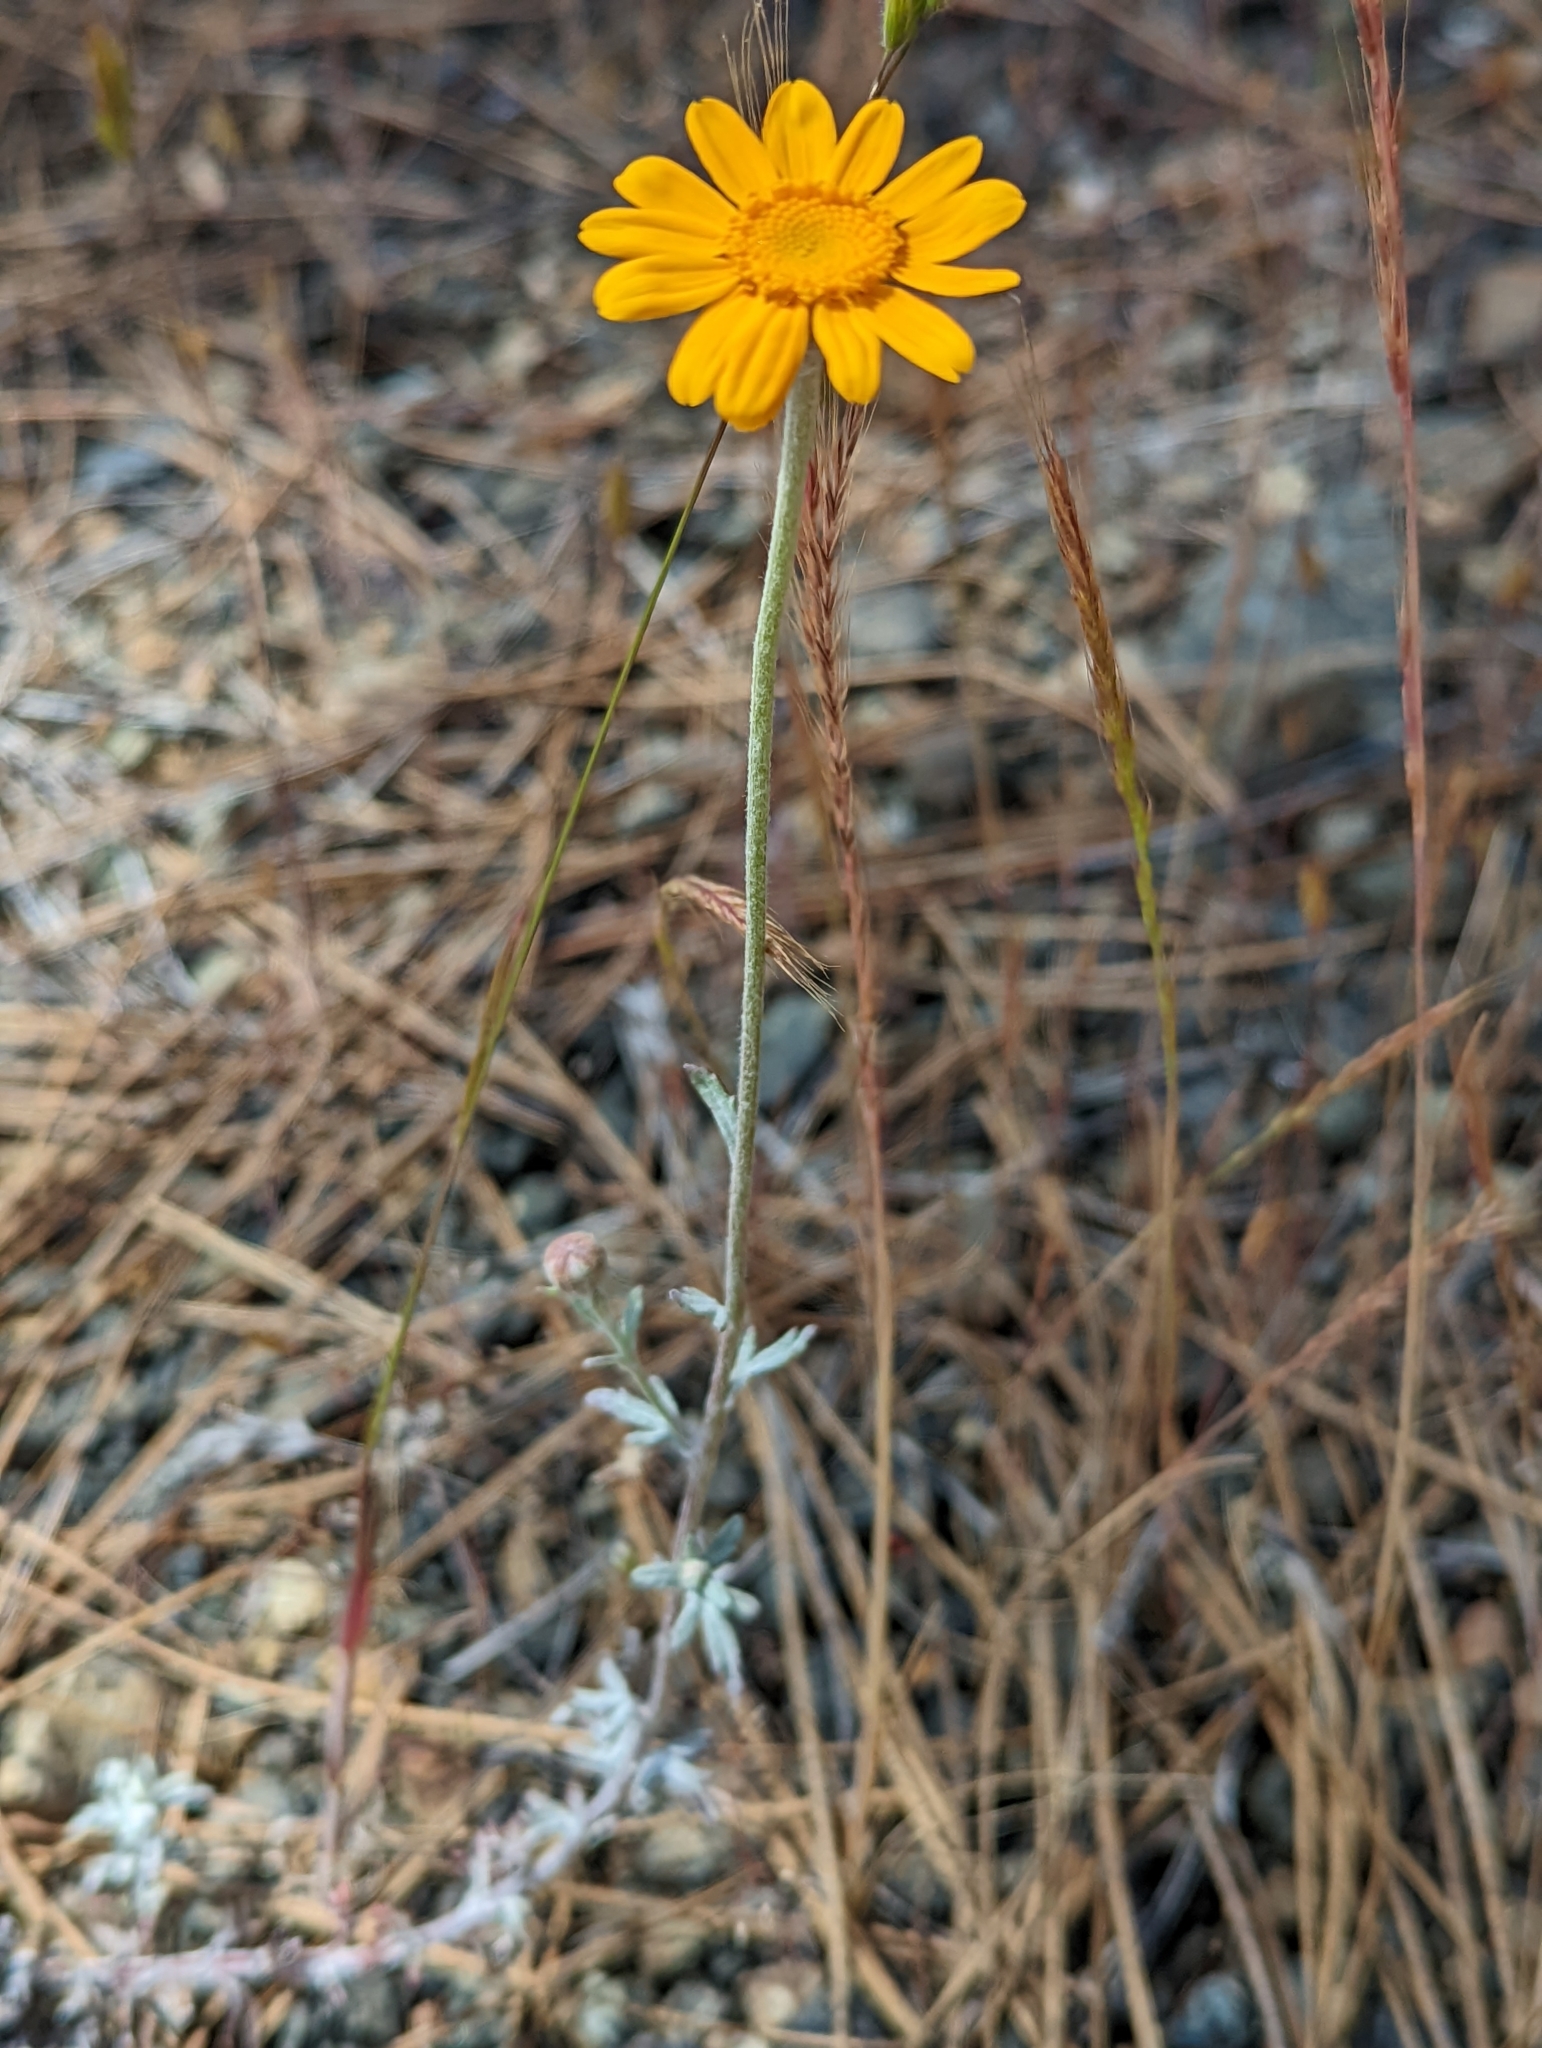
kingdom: Plantae
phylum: Tracheophyta
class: Magnoliopsida
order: Asterales
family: Asteraceae
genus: Eriophyllum
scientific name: Eriophyllum lanatum
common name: Common woolly-sunflower
